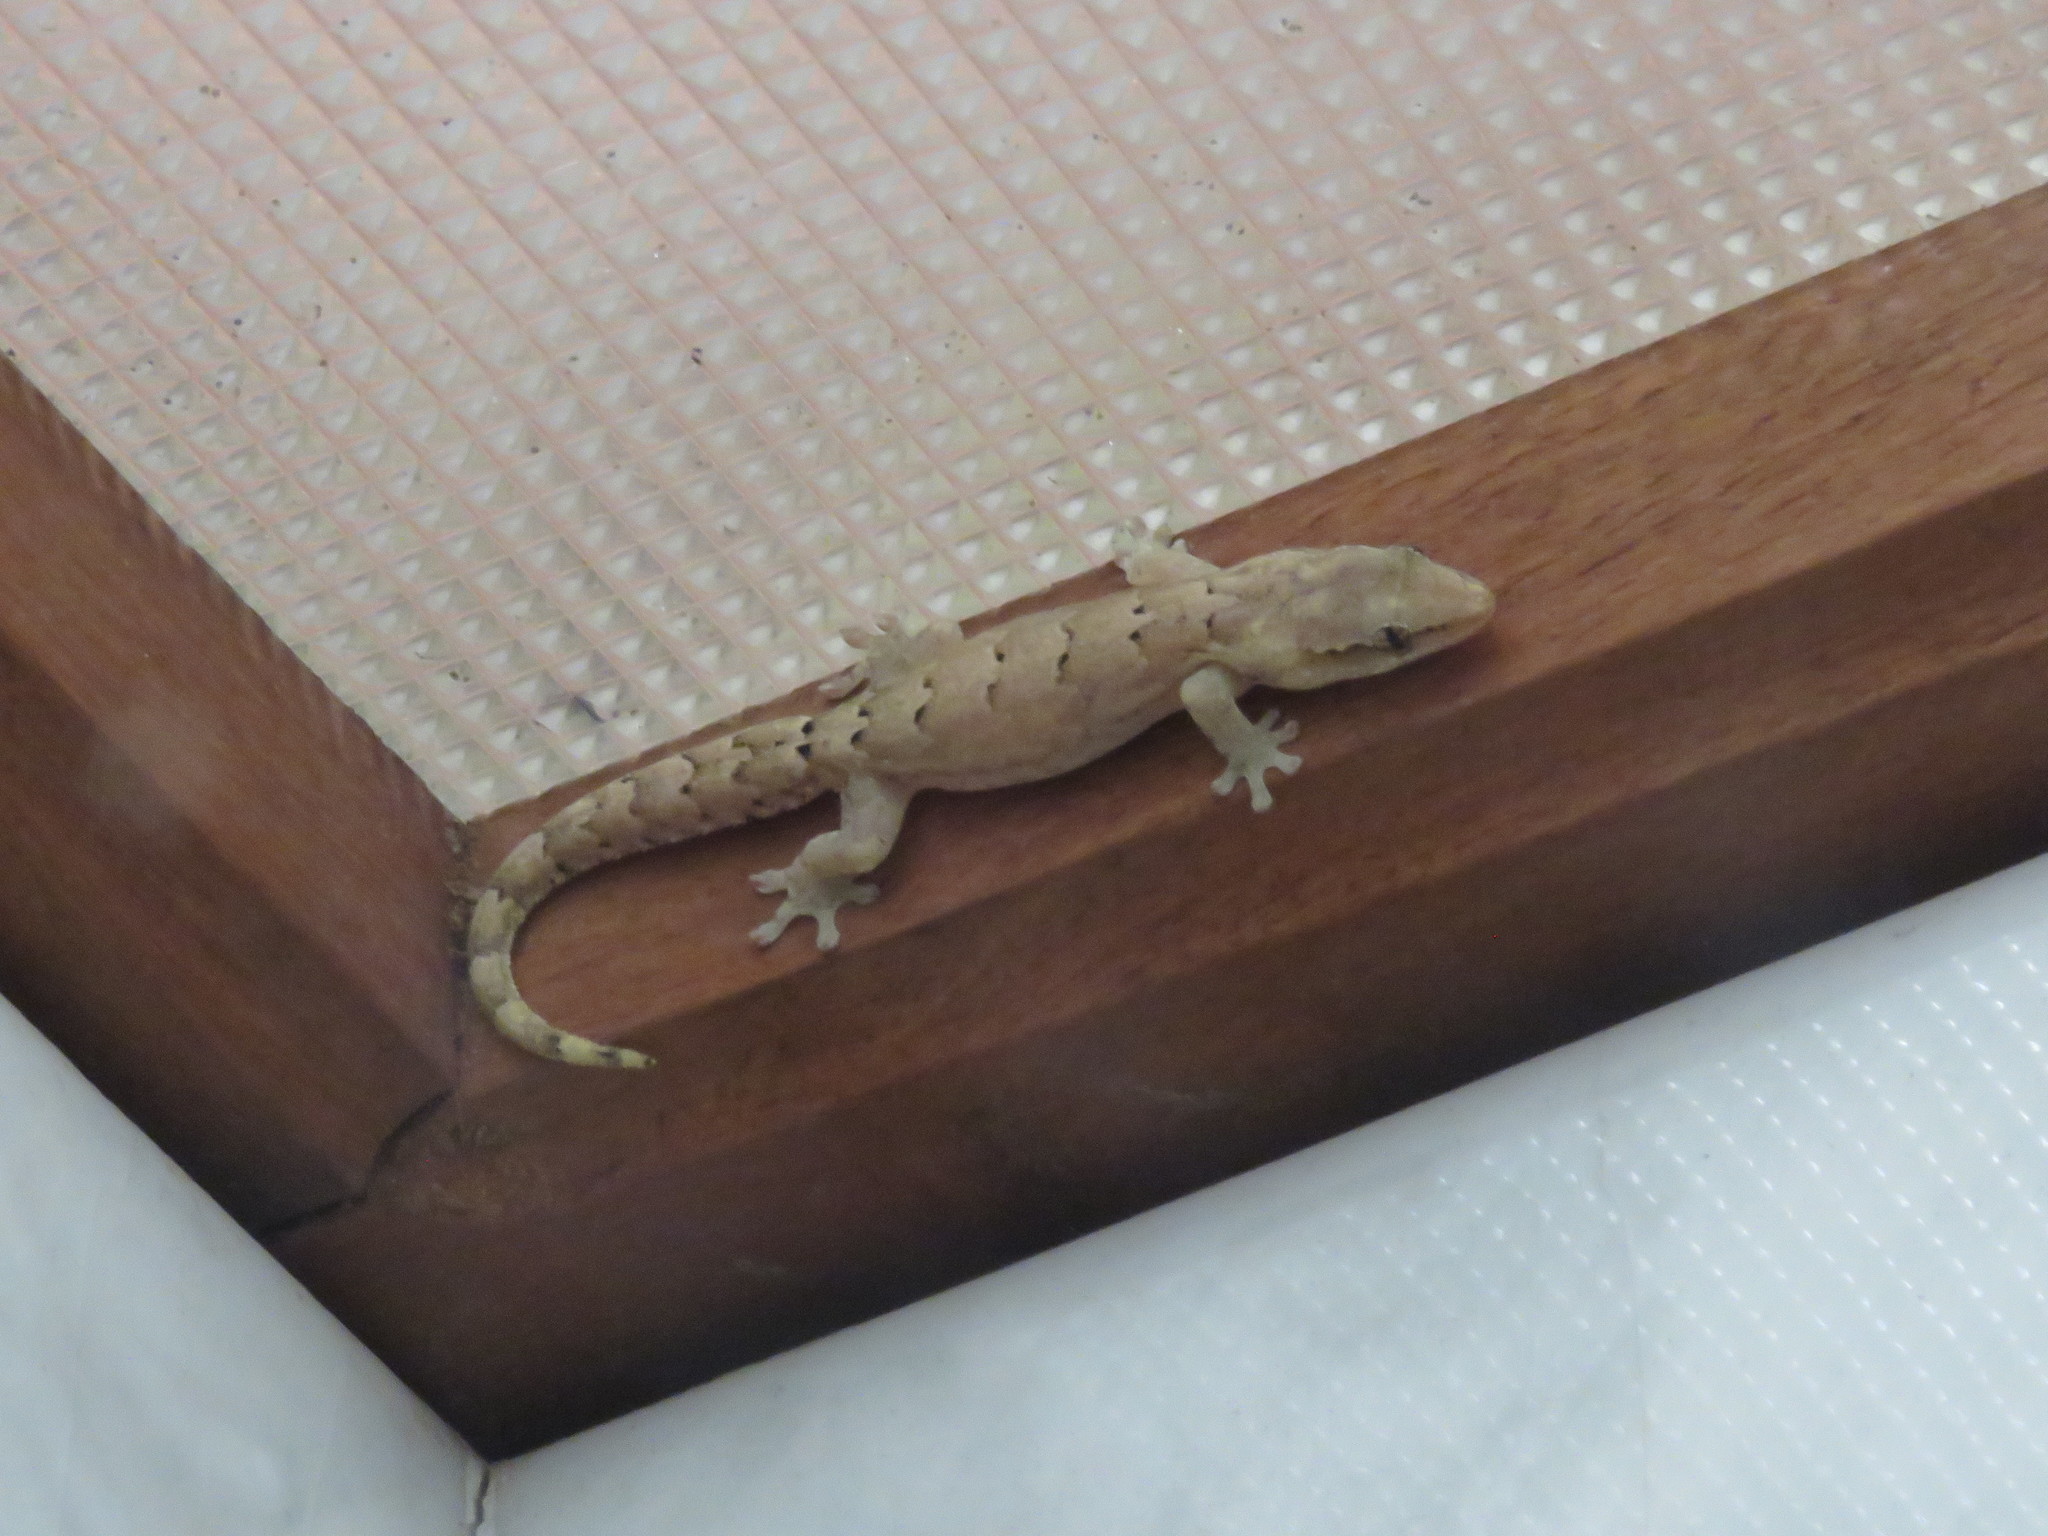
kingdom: Animalia
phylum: Chordata
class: Squamata
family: Gekkonidae
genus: Lepidodactylus
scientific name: Lepidodactylus lugubris
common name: Mourning gecko
